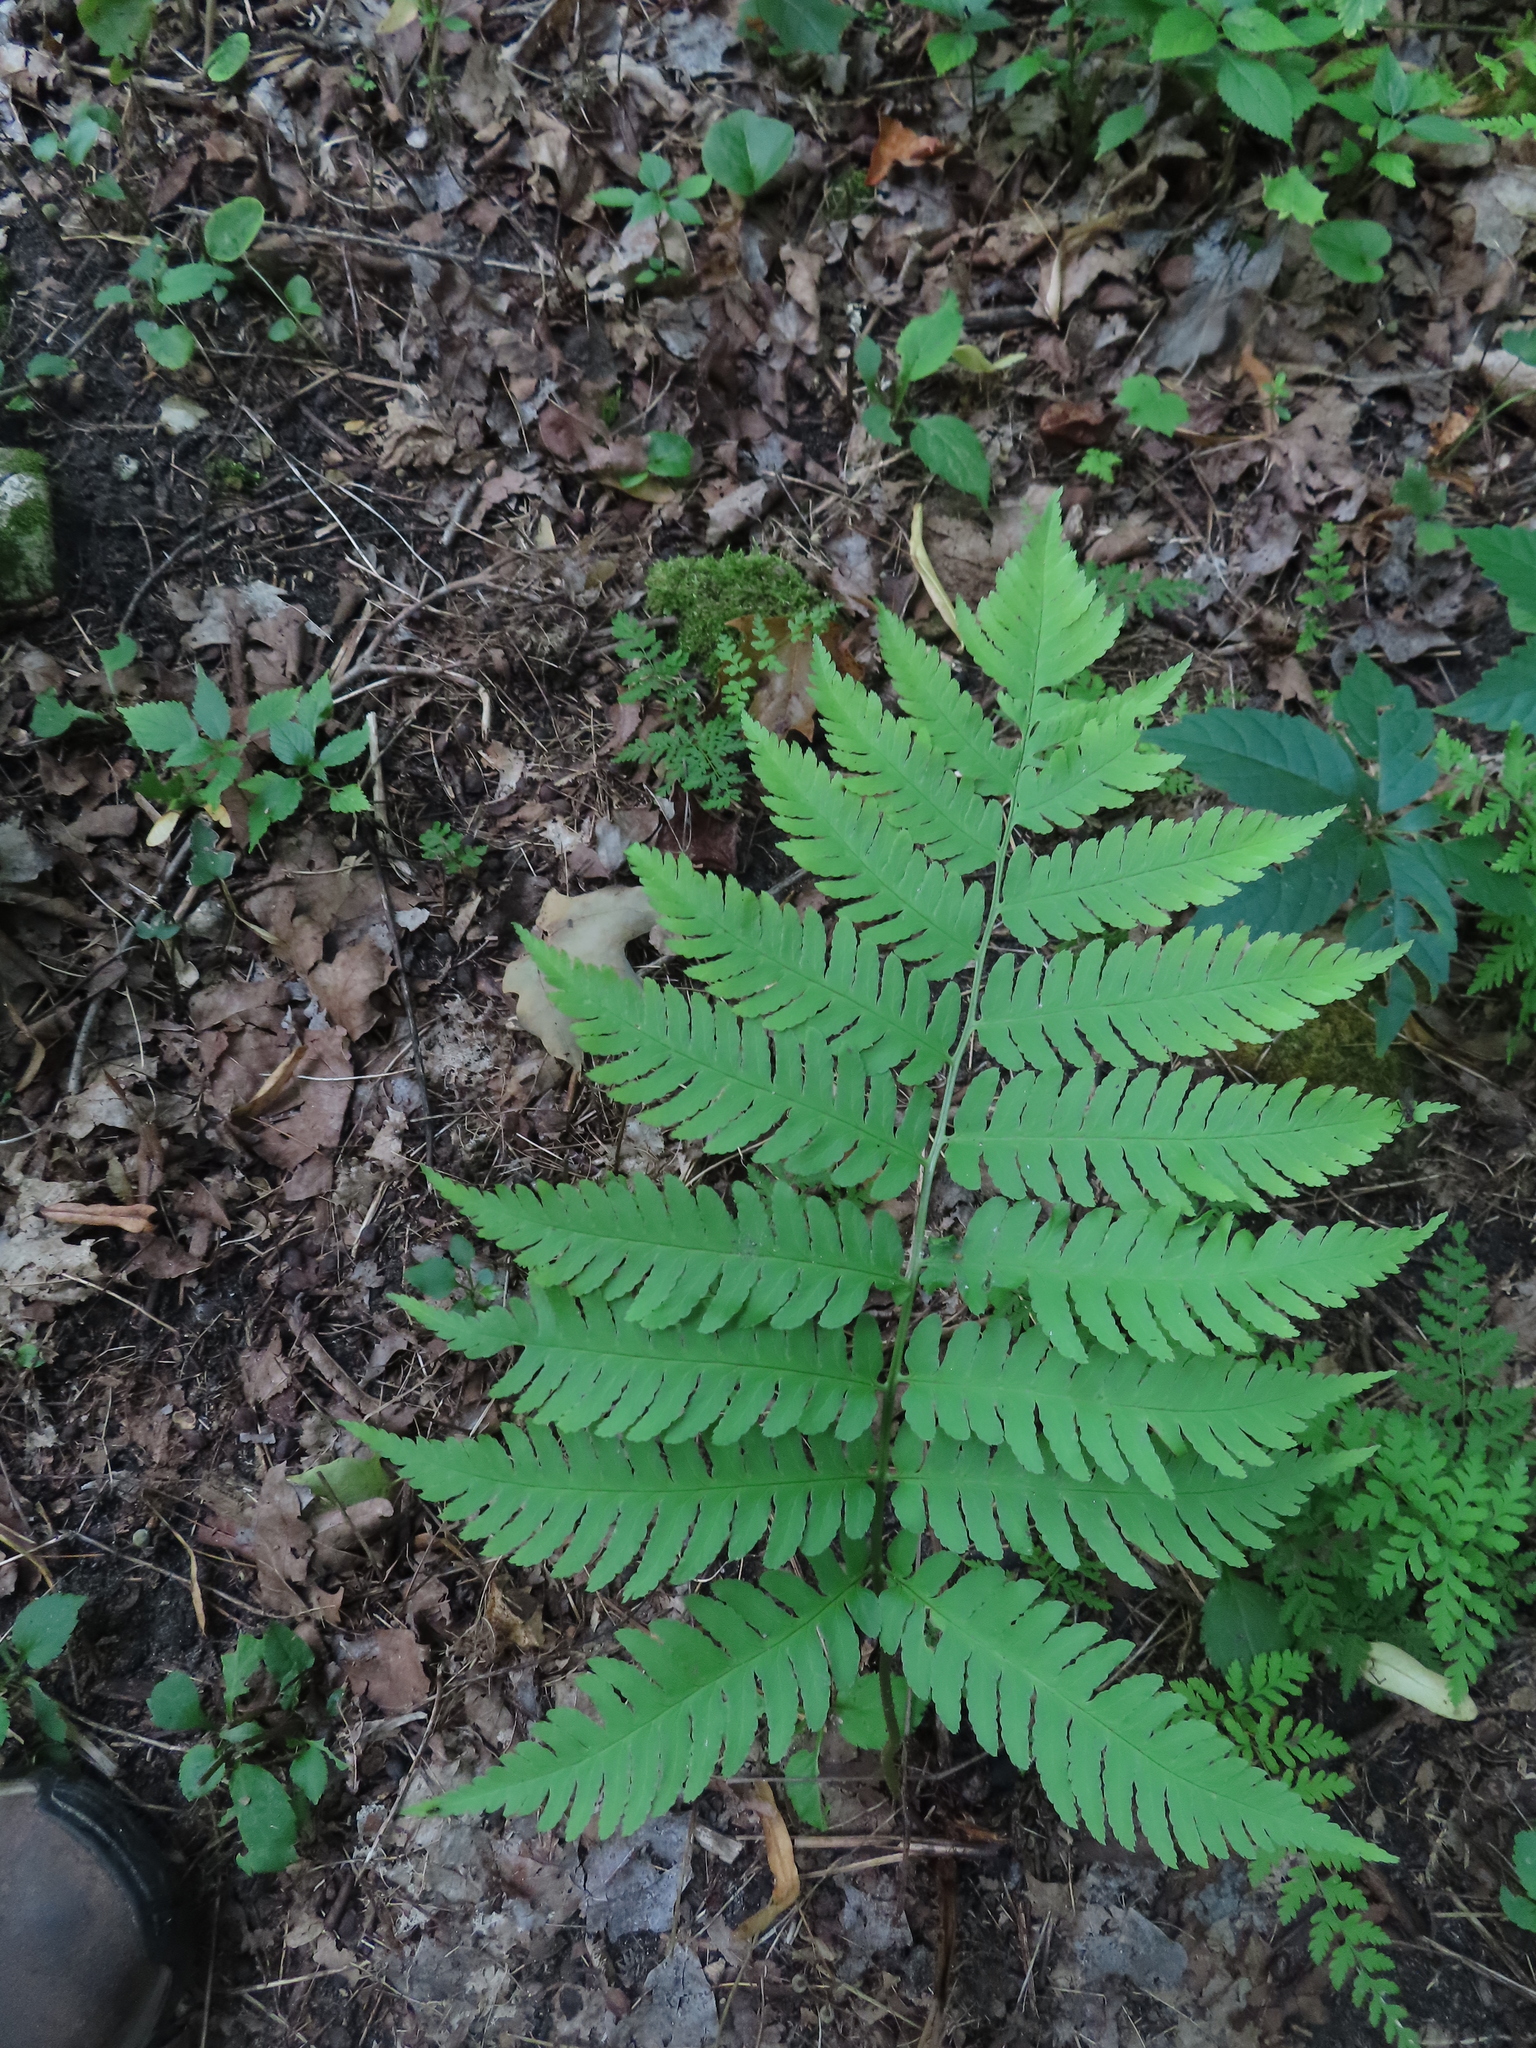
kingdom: Plantae
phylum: Tracheophyta
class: Polypodiopsida
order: Polypodiales
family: Dryopteridaceae
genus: Dryopteris
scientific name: Dryopteris goldieana
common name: Goldie's fern
